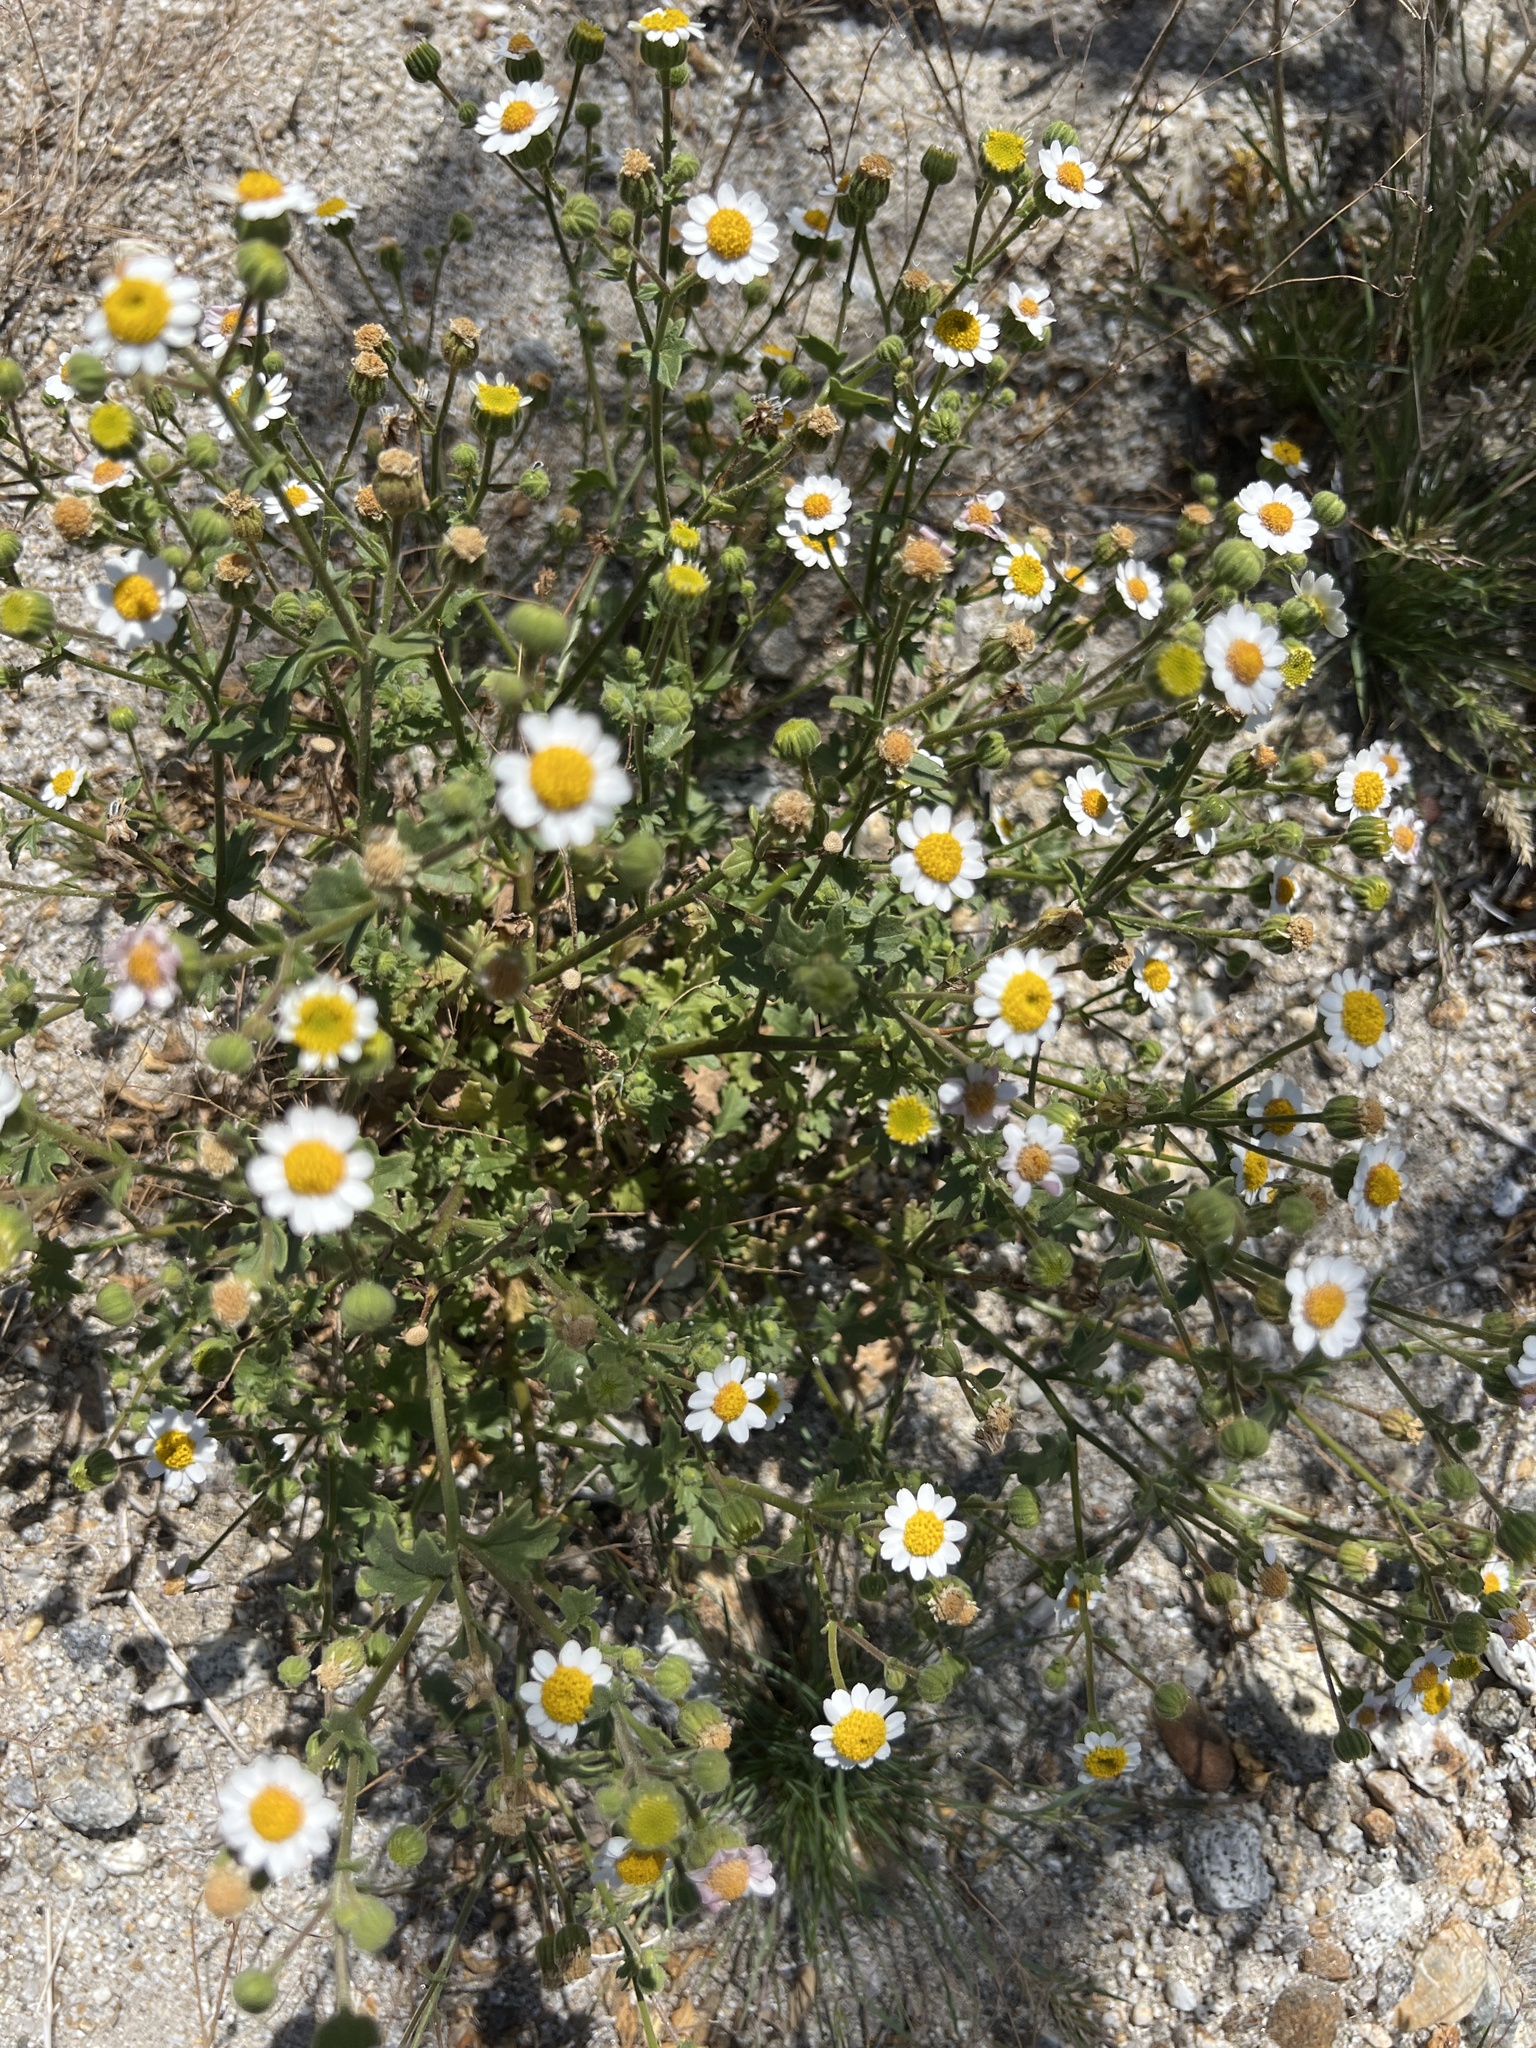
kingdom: Plantae
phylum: Tracheophyta
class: Magnoliopsida
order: Asterales
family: Asteraceae
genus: Laphamia
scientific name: Laphamia emoryi
